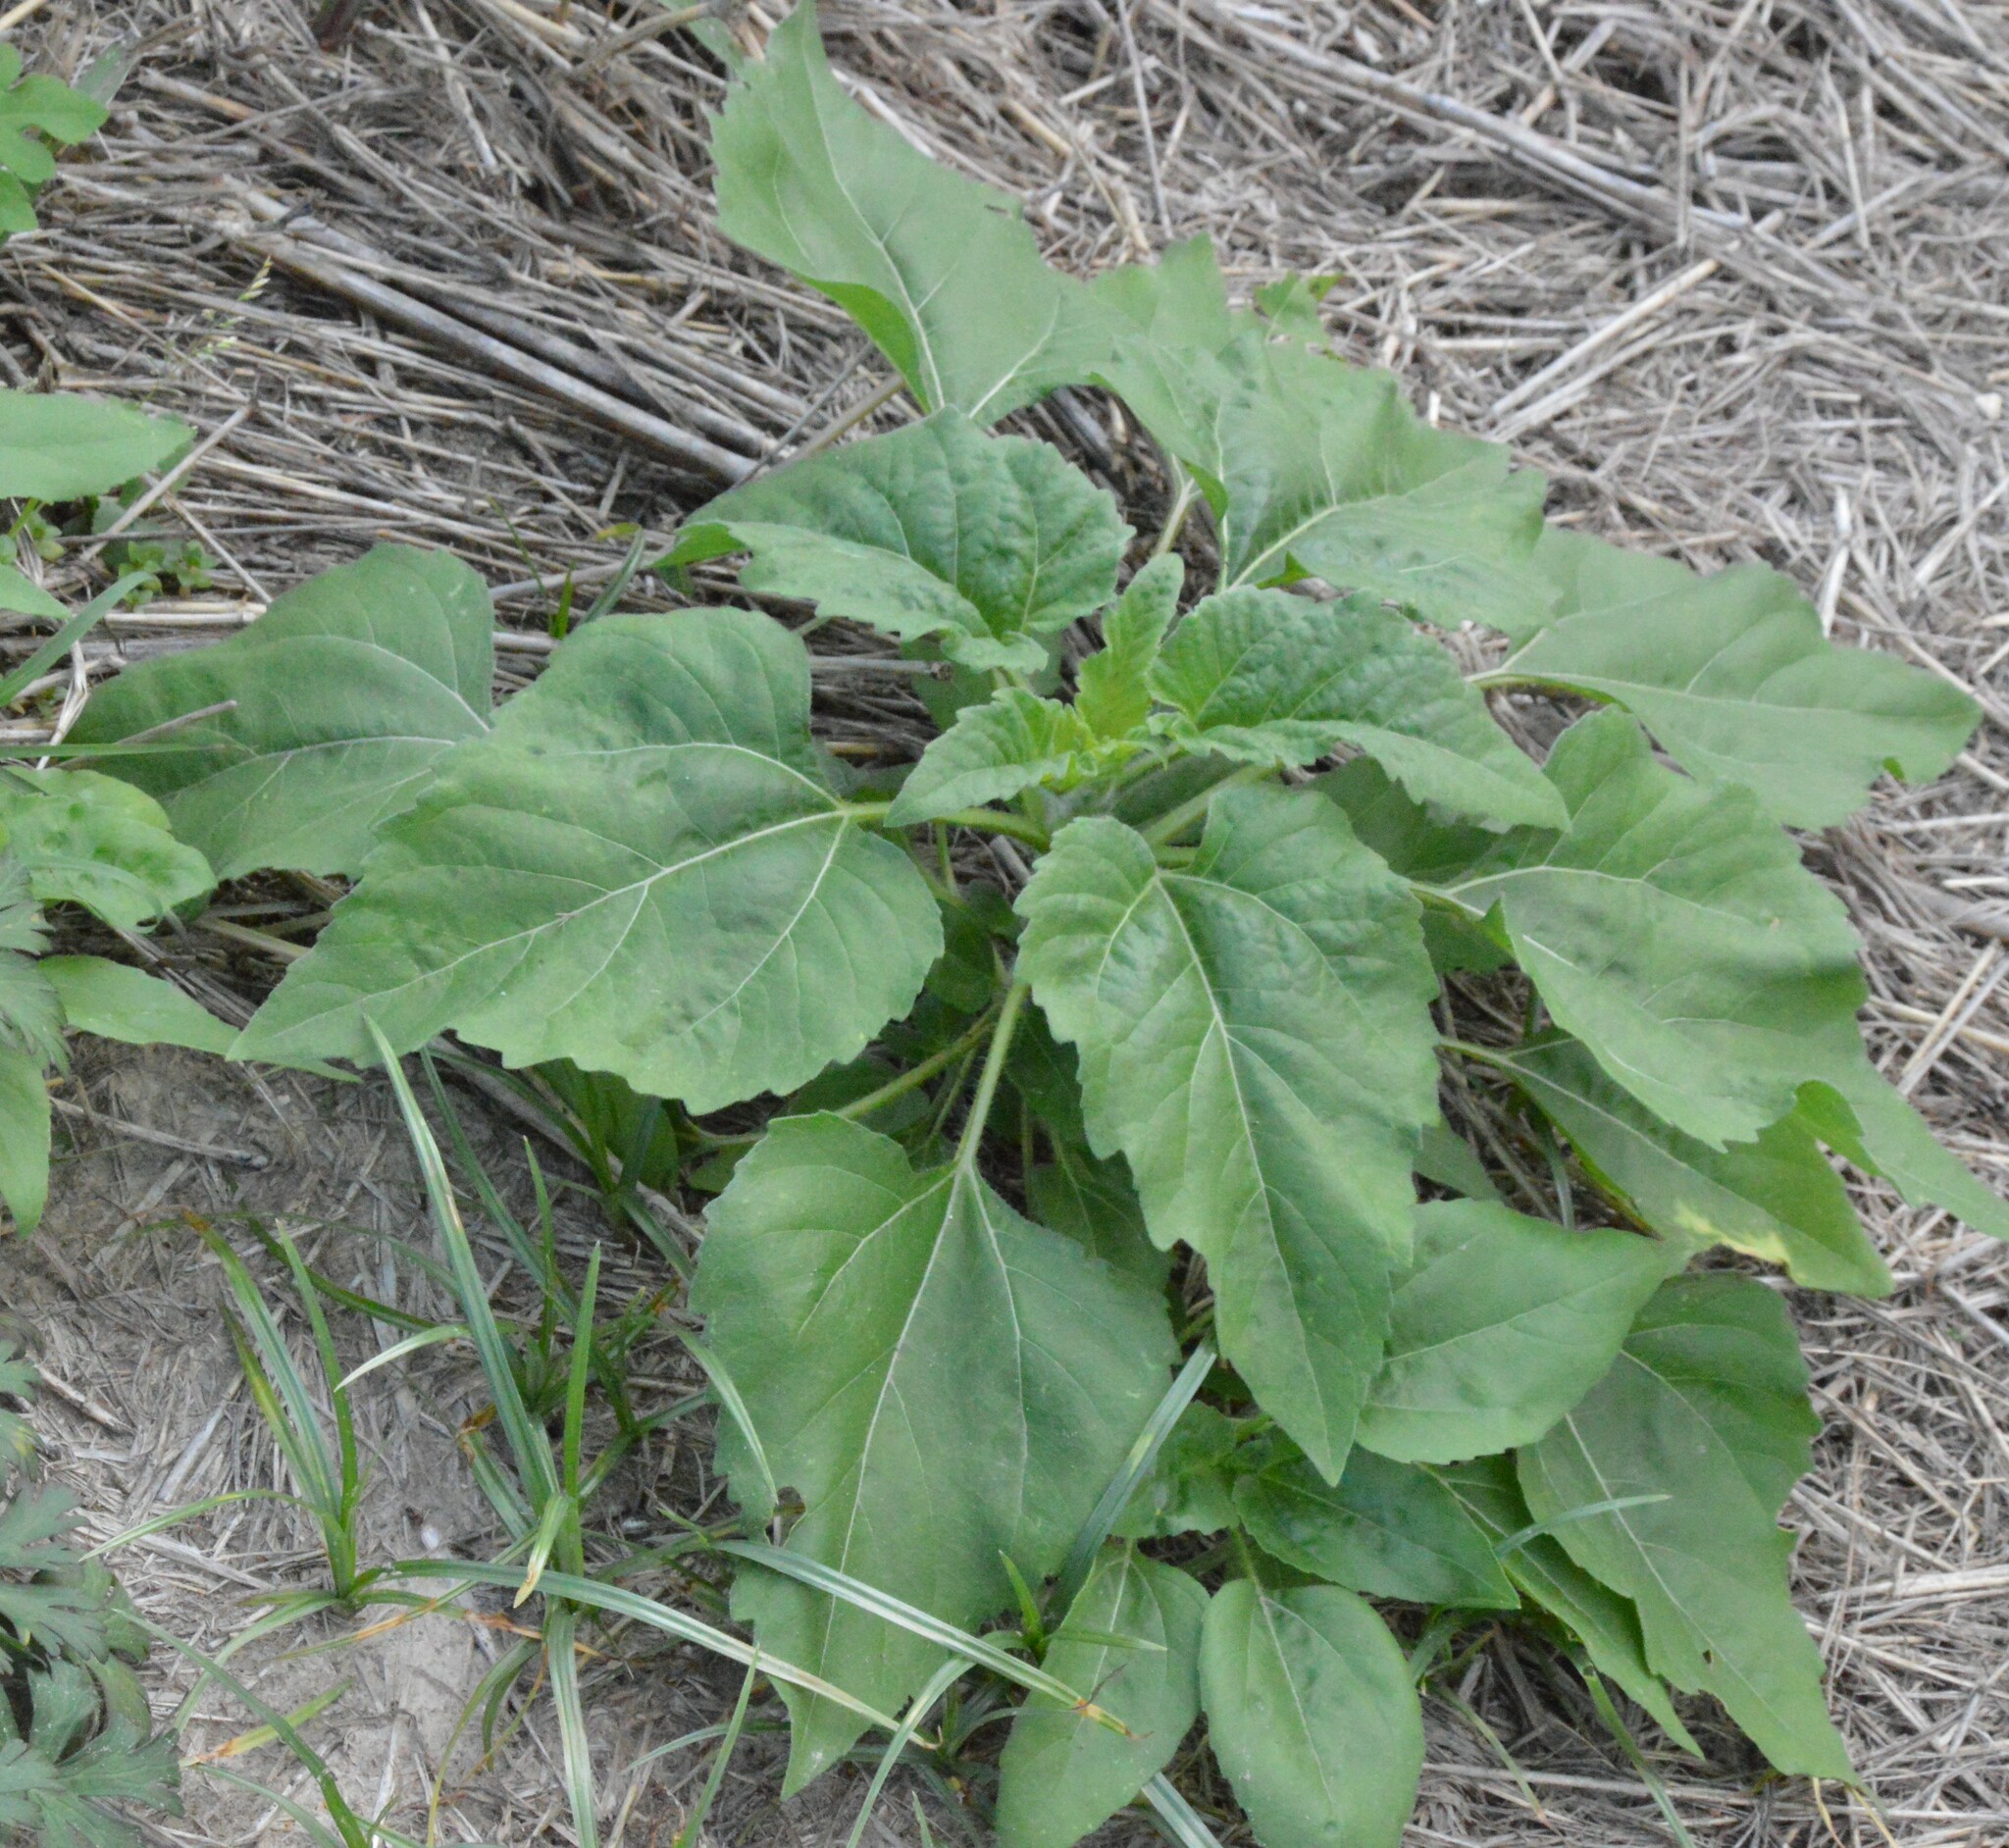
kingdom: Plantae
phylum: Tracheophyta
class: Magnoliopsida
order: Asterales
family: Asteraceae
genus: Helianthus
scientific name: Helianthus annuus
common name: Sunflower
